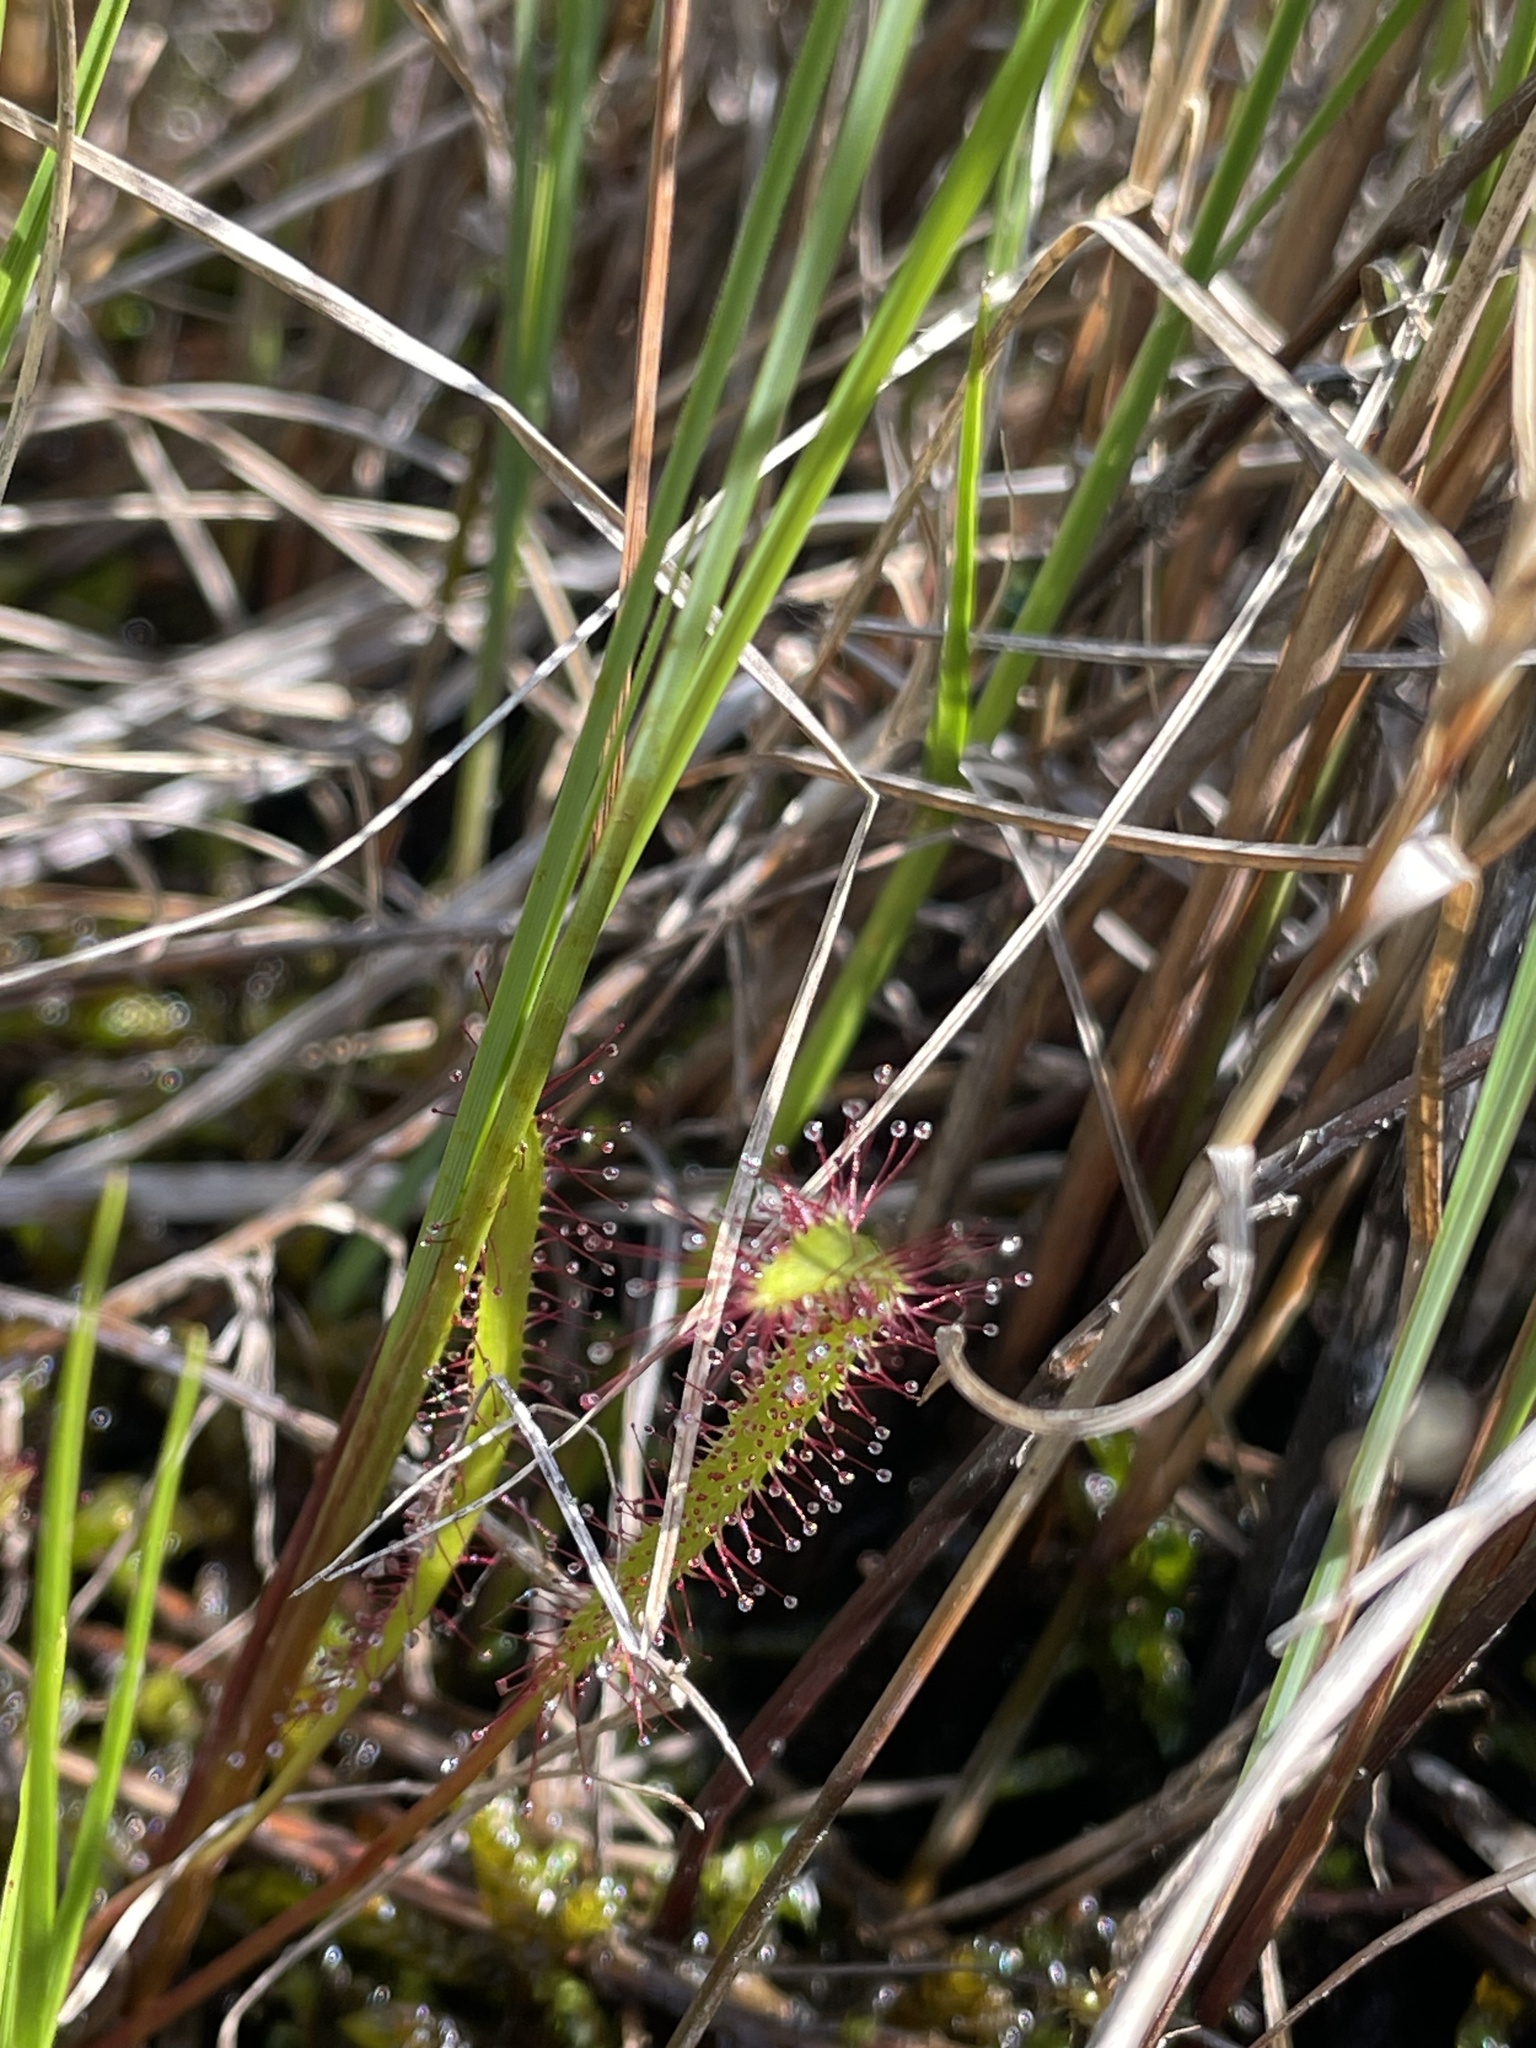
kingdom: Plantae
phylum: Tracheophyta
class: Magnoliopsida
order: Caryophyllales
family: Droseraceae
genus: Drosera
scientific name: Drosera linearis
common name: Linear-leaved sundew
